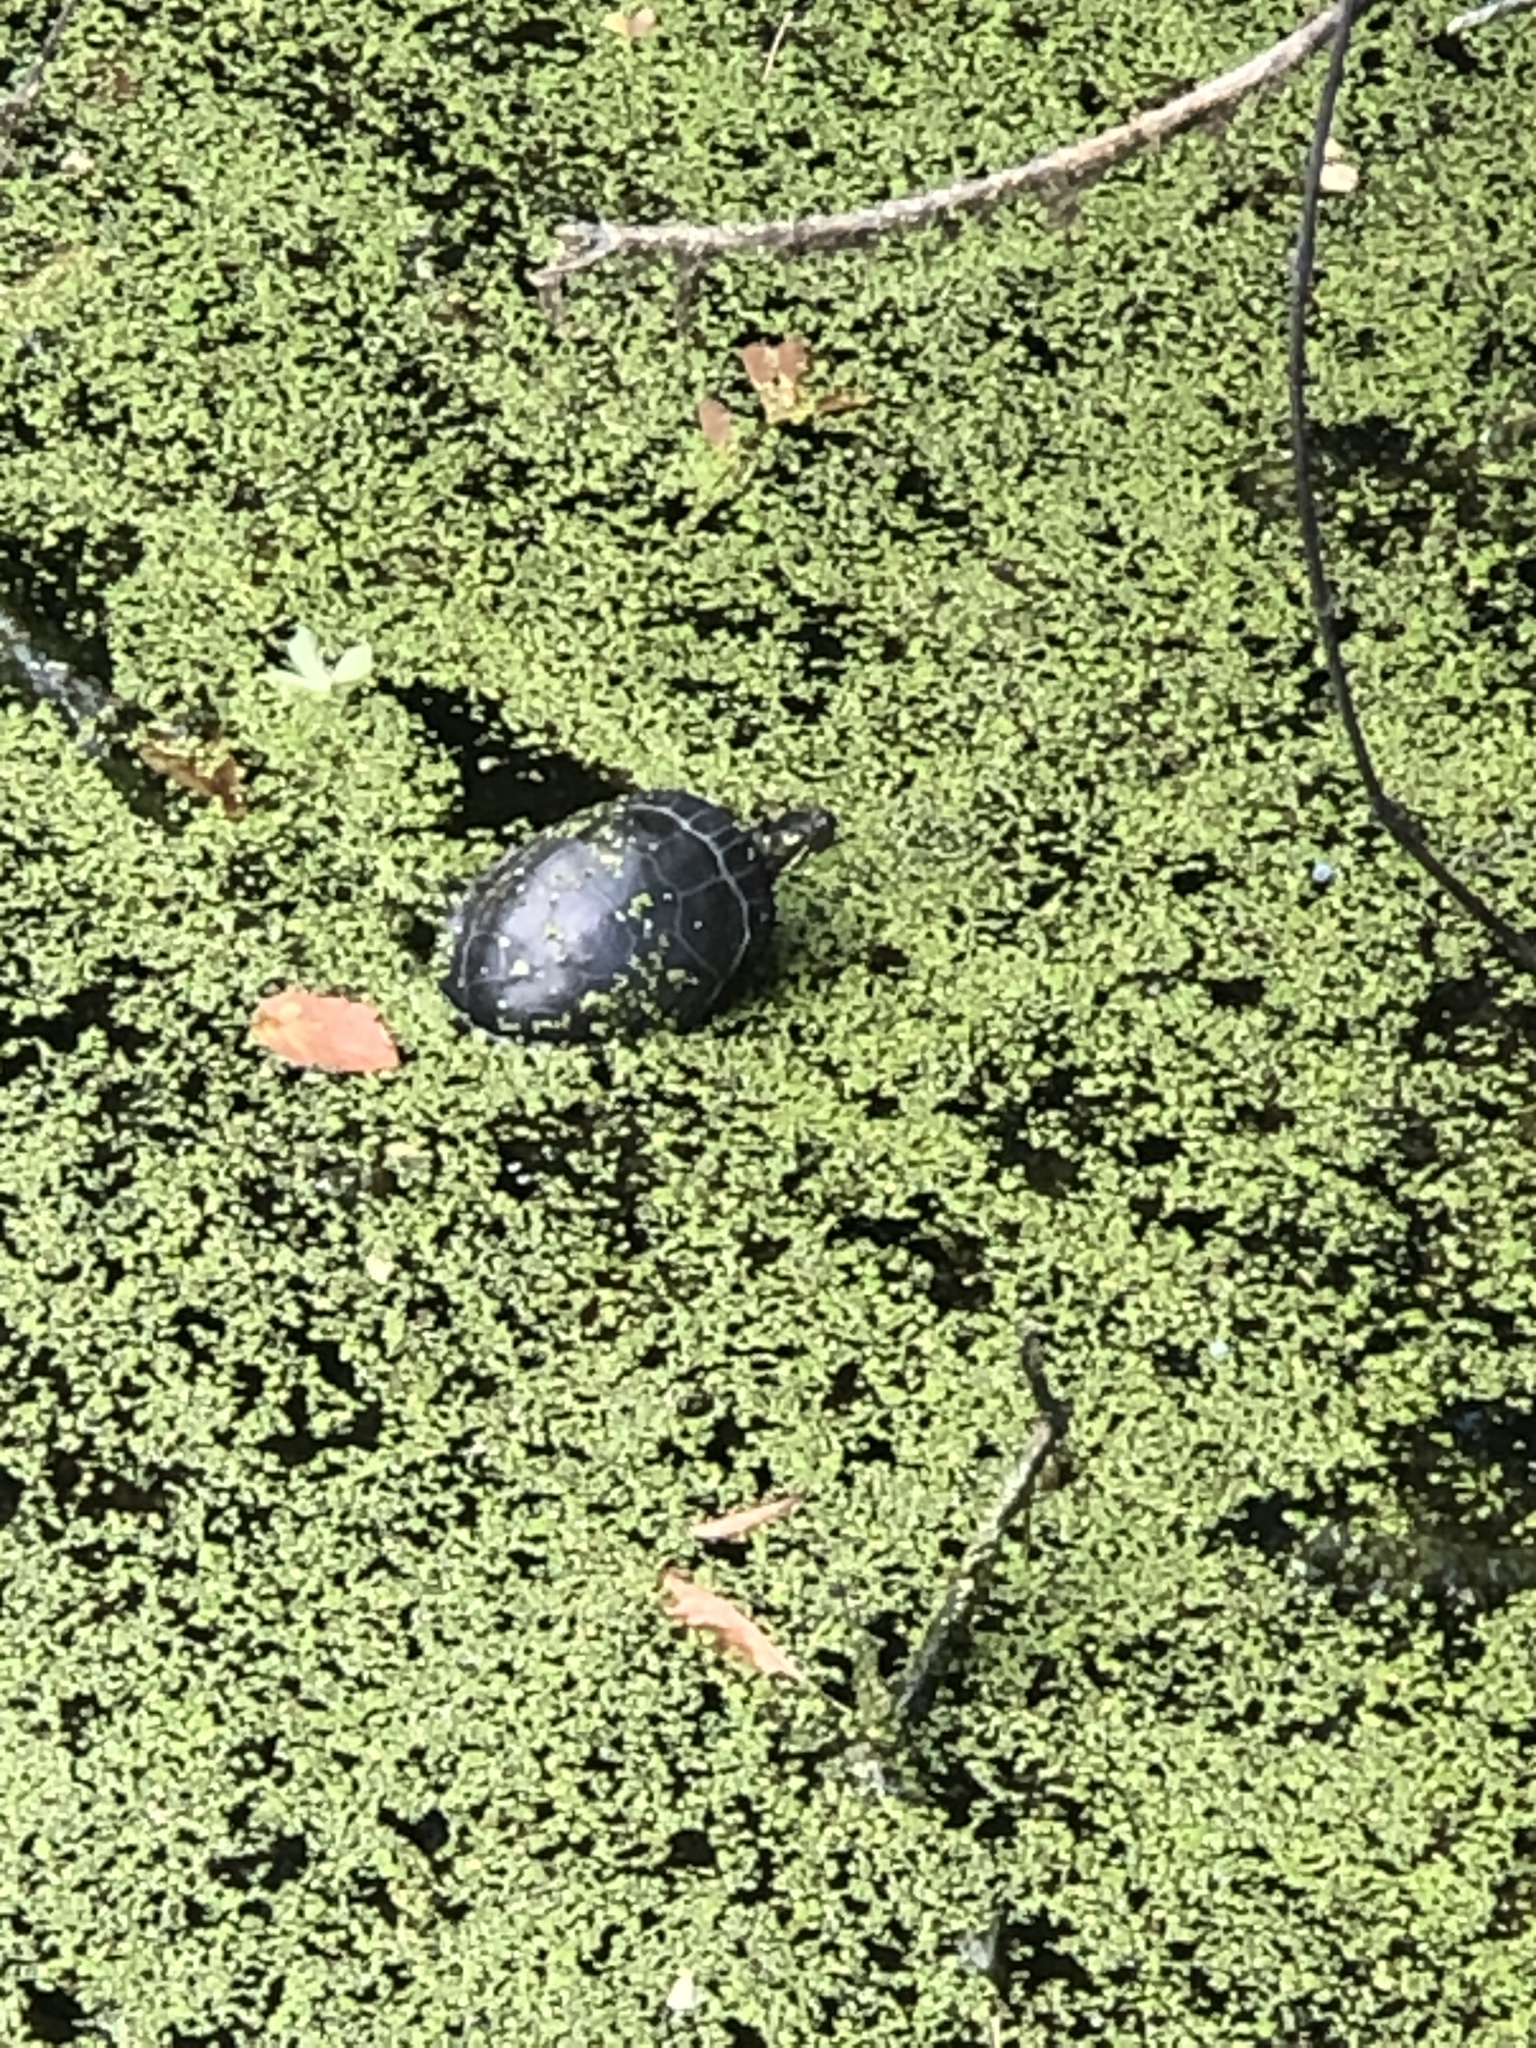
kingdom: Animalia
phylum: Chordata
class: Testudines
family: Emydidae
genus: Chrysemys
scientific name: Chrysemys picta
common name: Painted turtle
